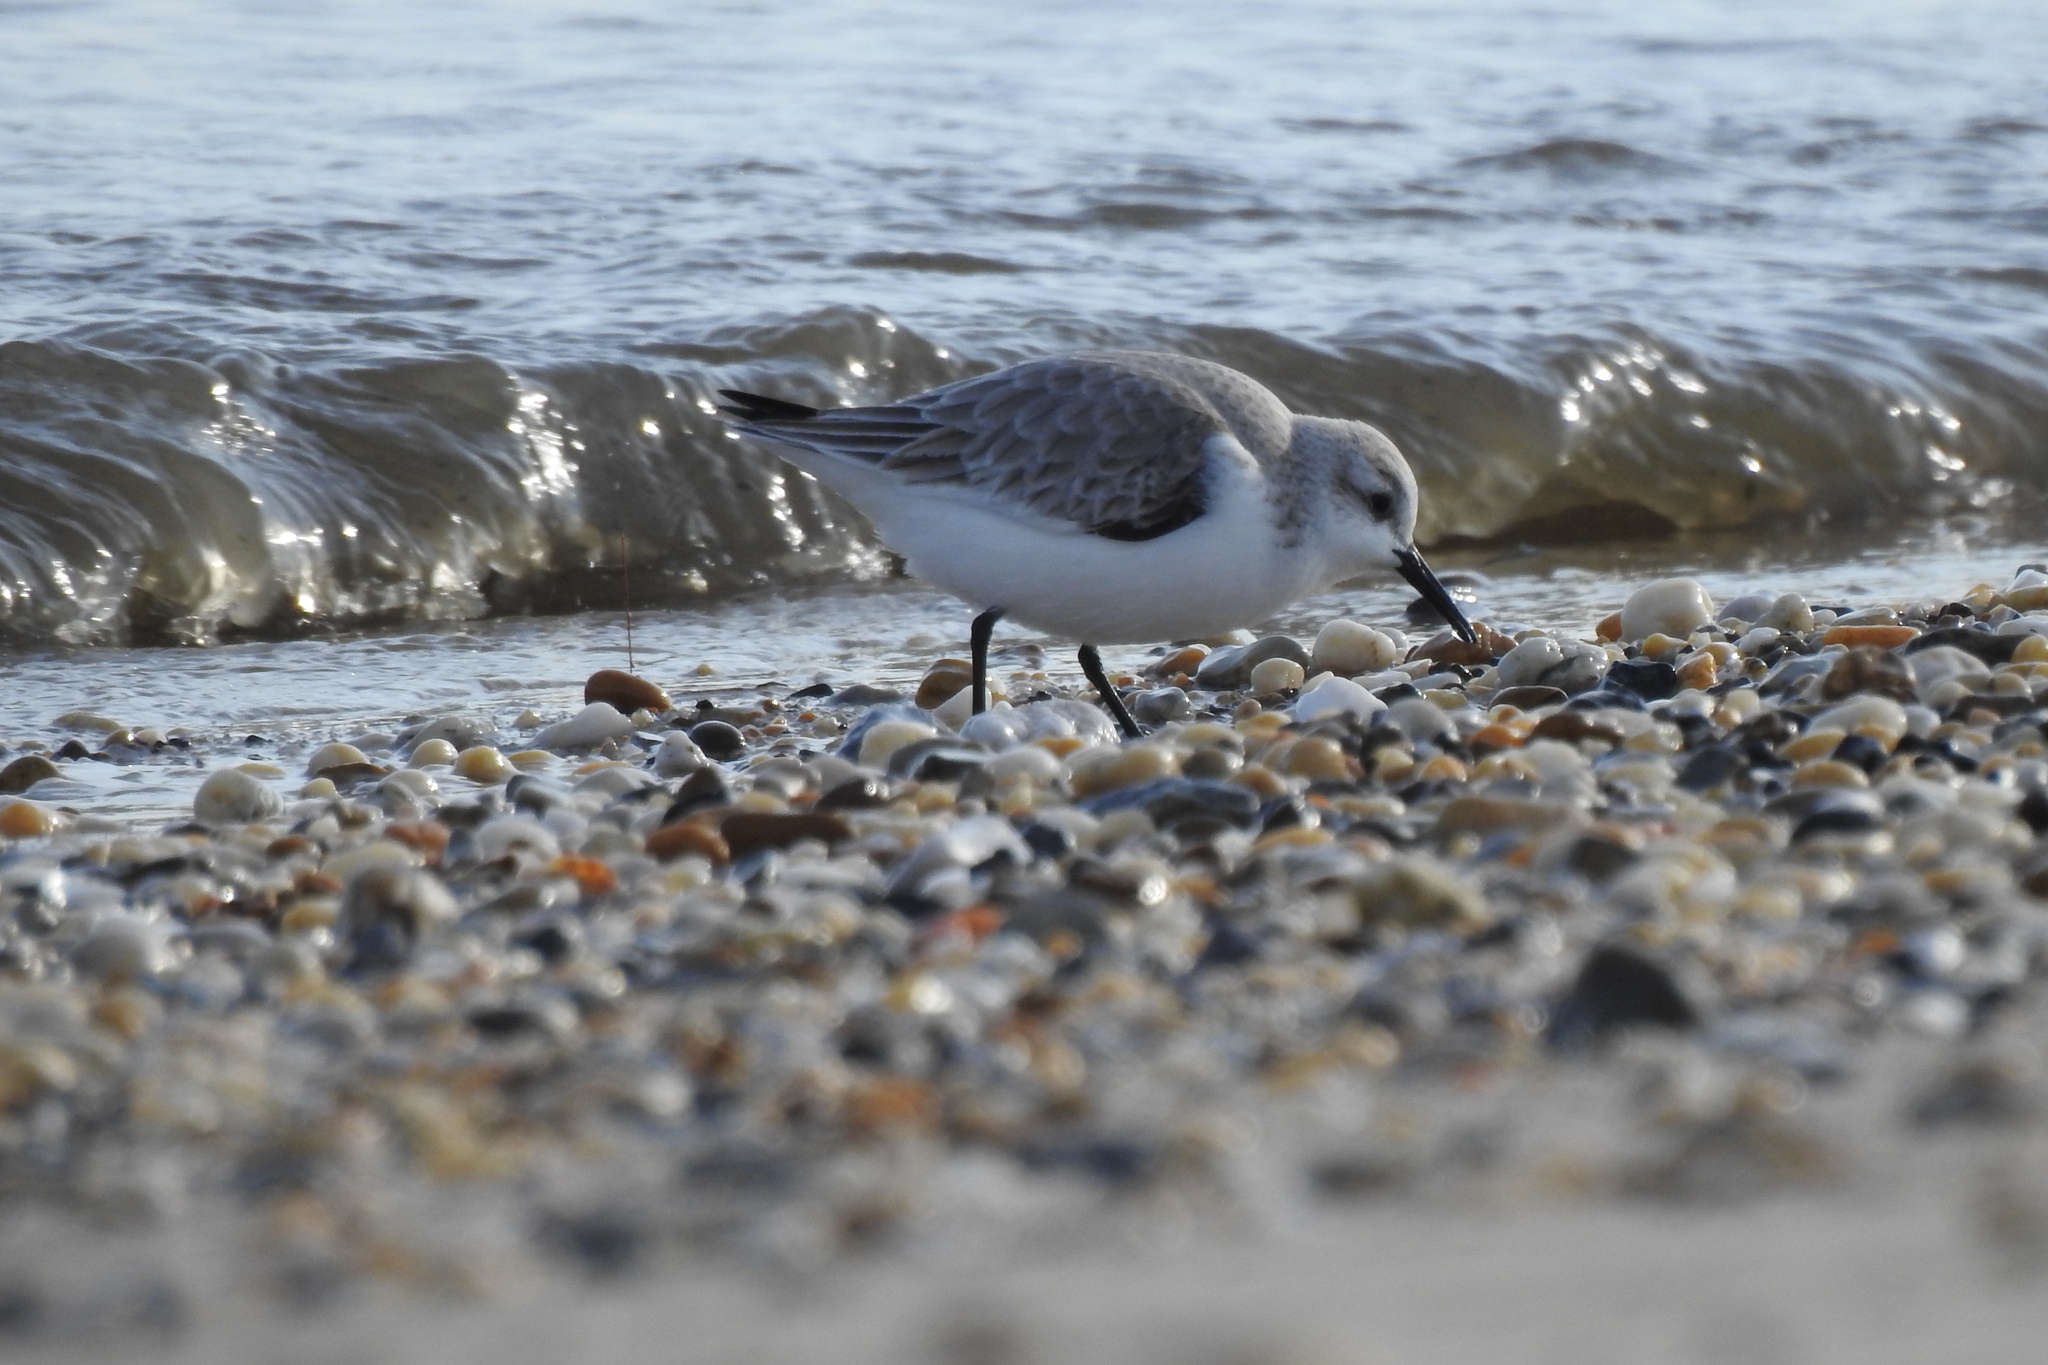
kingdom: Animalia
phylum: Chordata
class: Aves
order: Charadriiformes
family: Scolopacidae
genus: Calidris
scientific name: Calidris alba
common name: Sanderling
